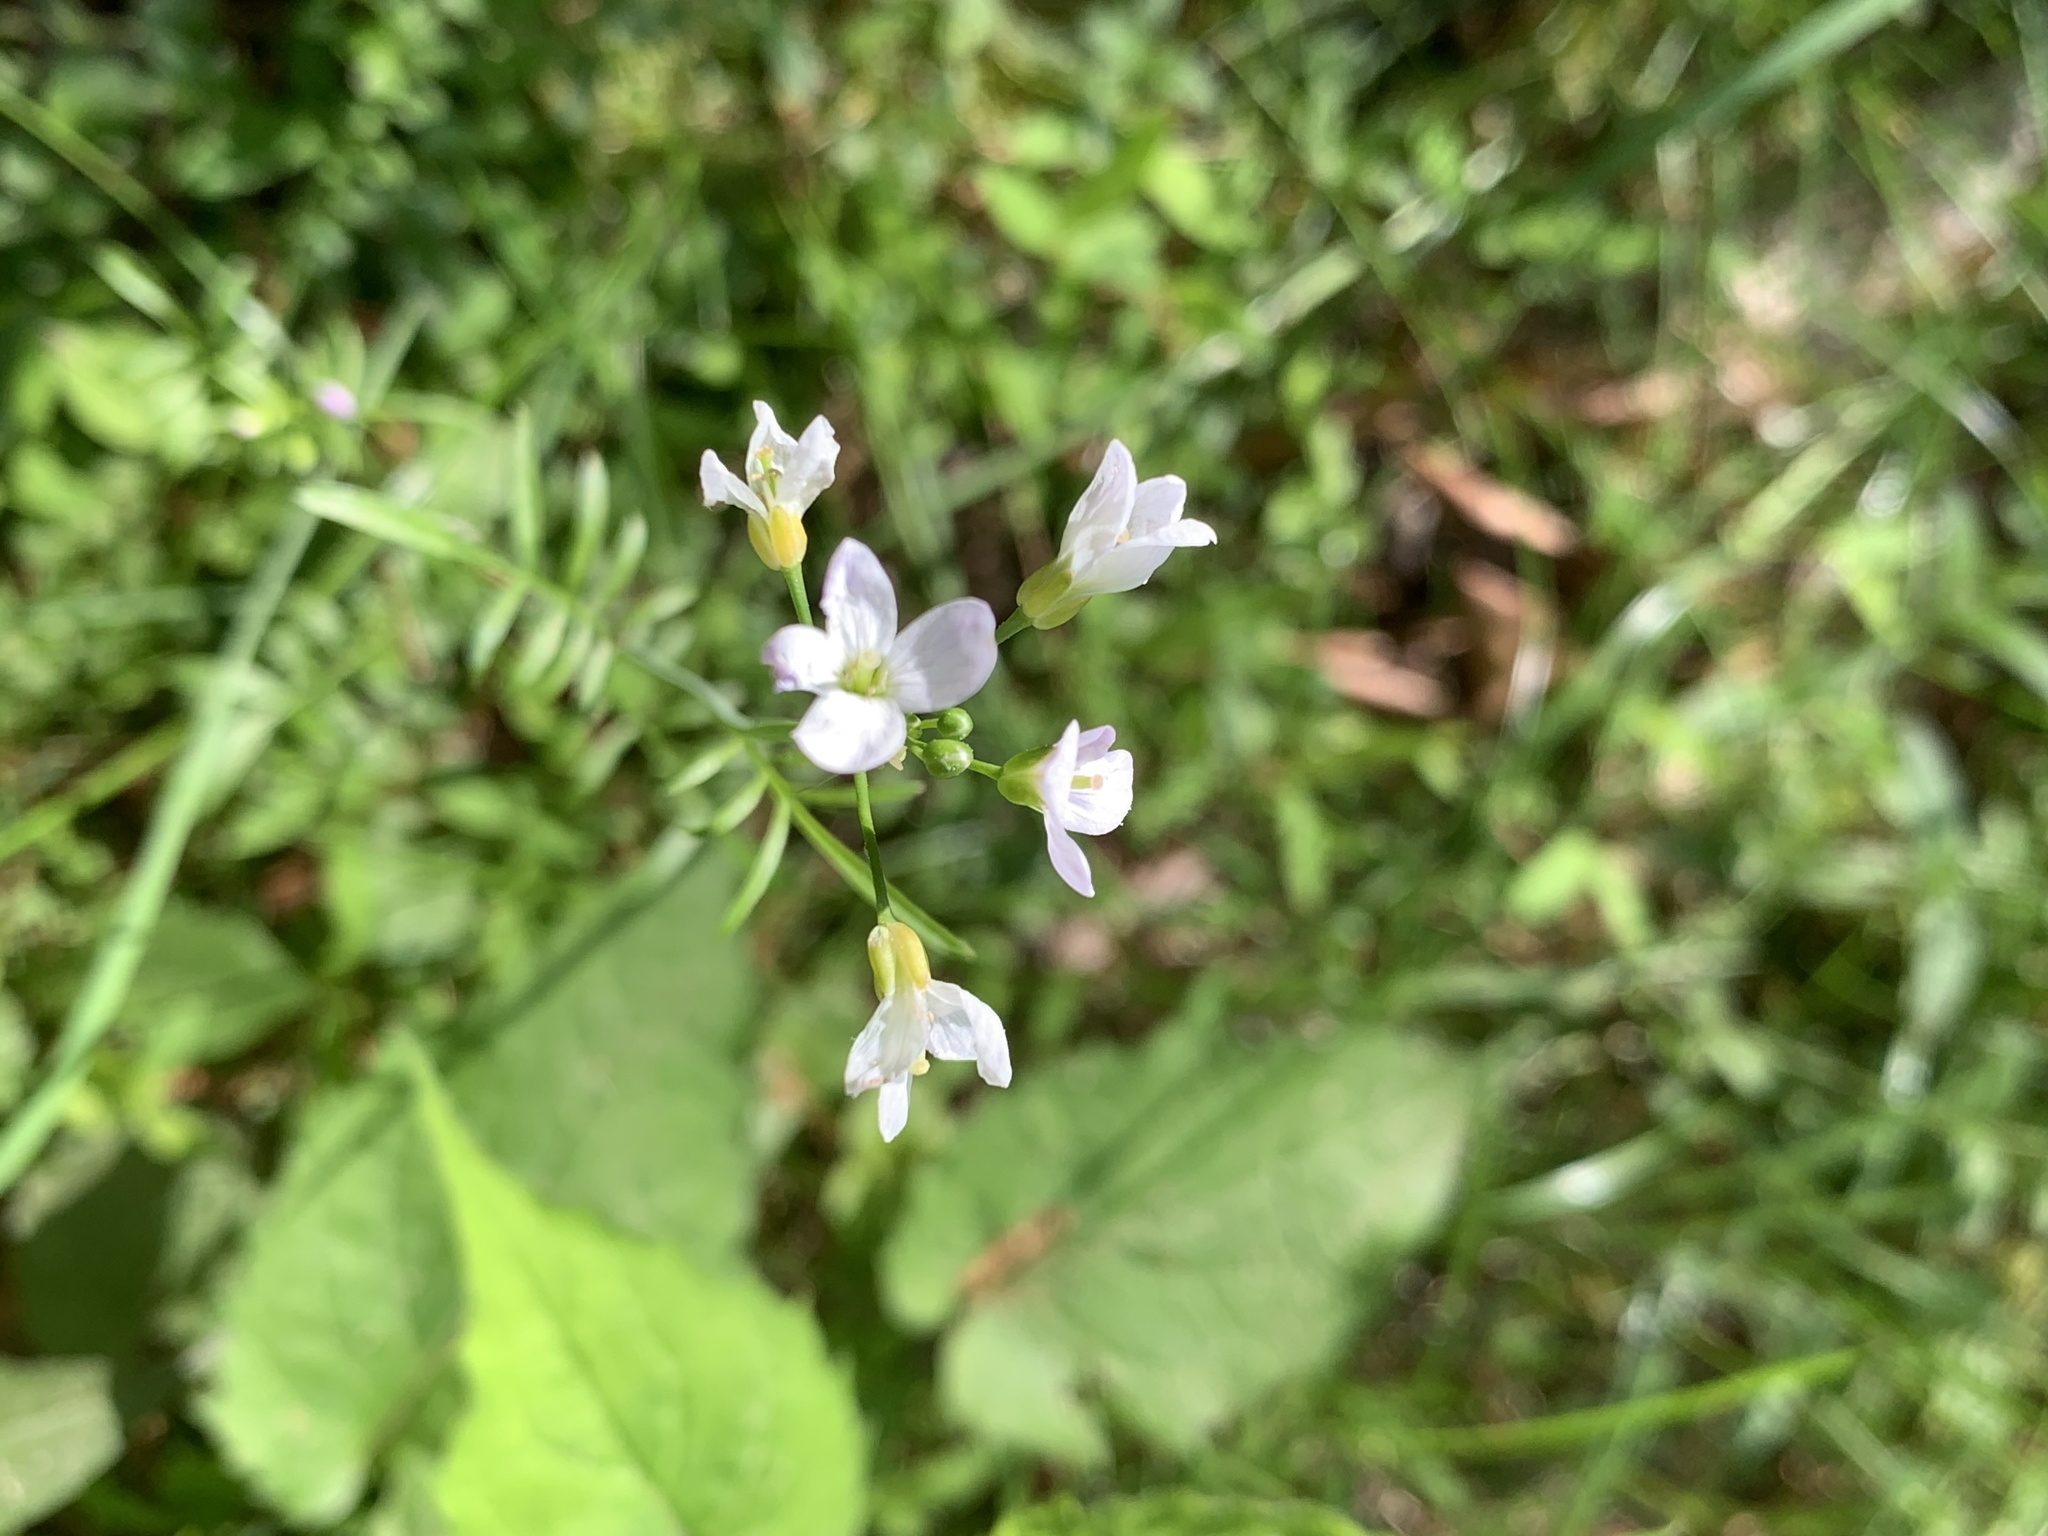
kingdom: Plantae
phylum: Tracheophyta
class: Magnoliopsida
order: Brassicales
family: Brassicaceae
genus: Cardamine
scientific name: Cardamine pratensis
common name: Cuckoo flower
